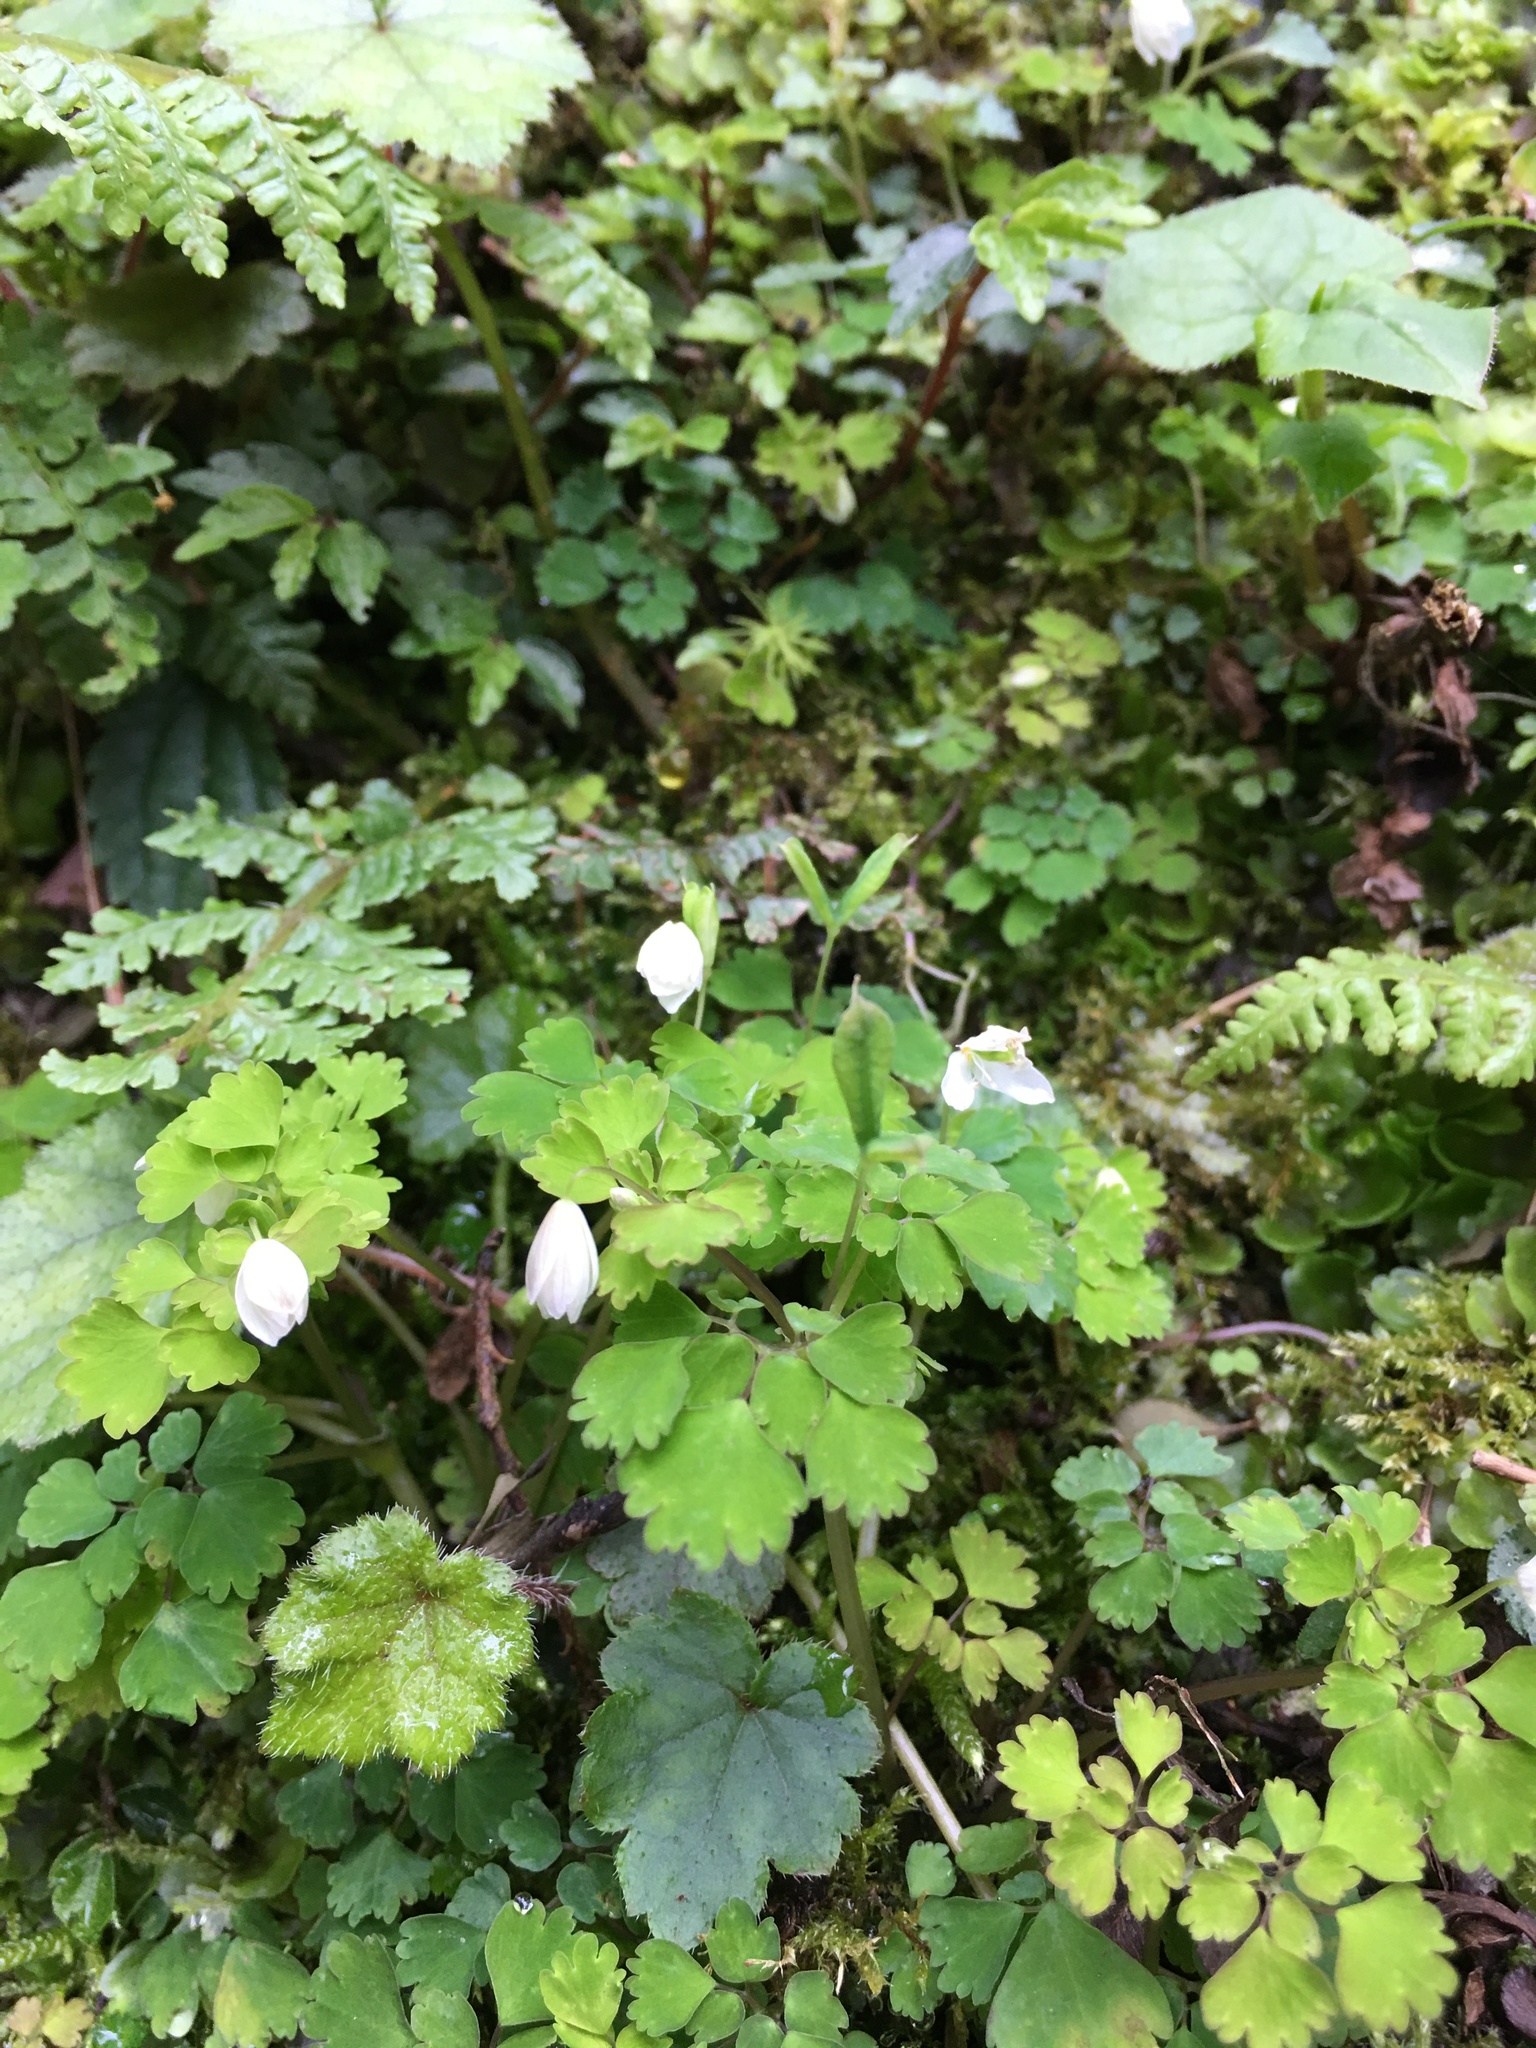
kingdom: Plantae
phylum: Tracheophyta
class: Magnoliopsida
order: Ranunculales
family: Ranunculaceae
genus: Dichocarpum
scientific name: Dichocarpum adiantifolium
